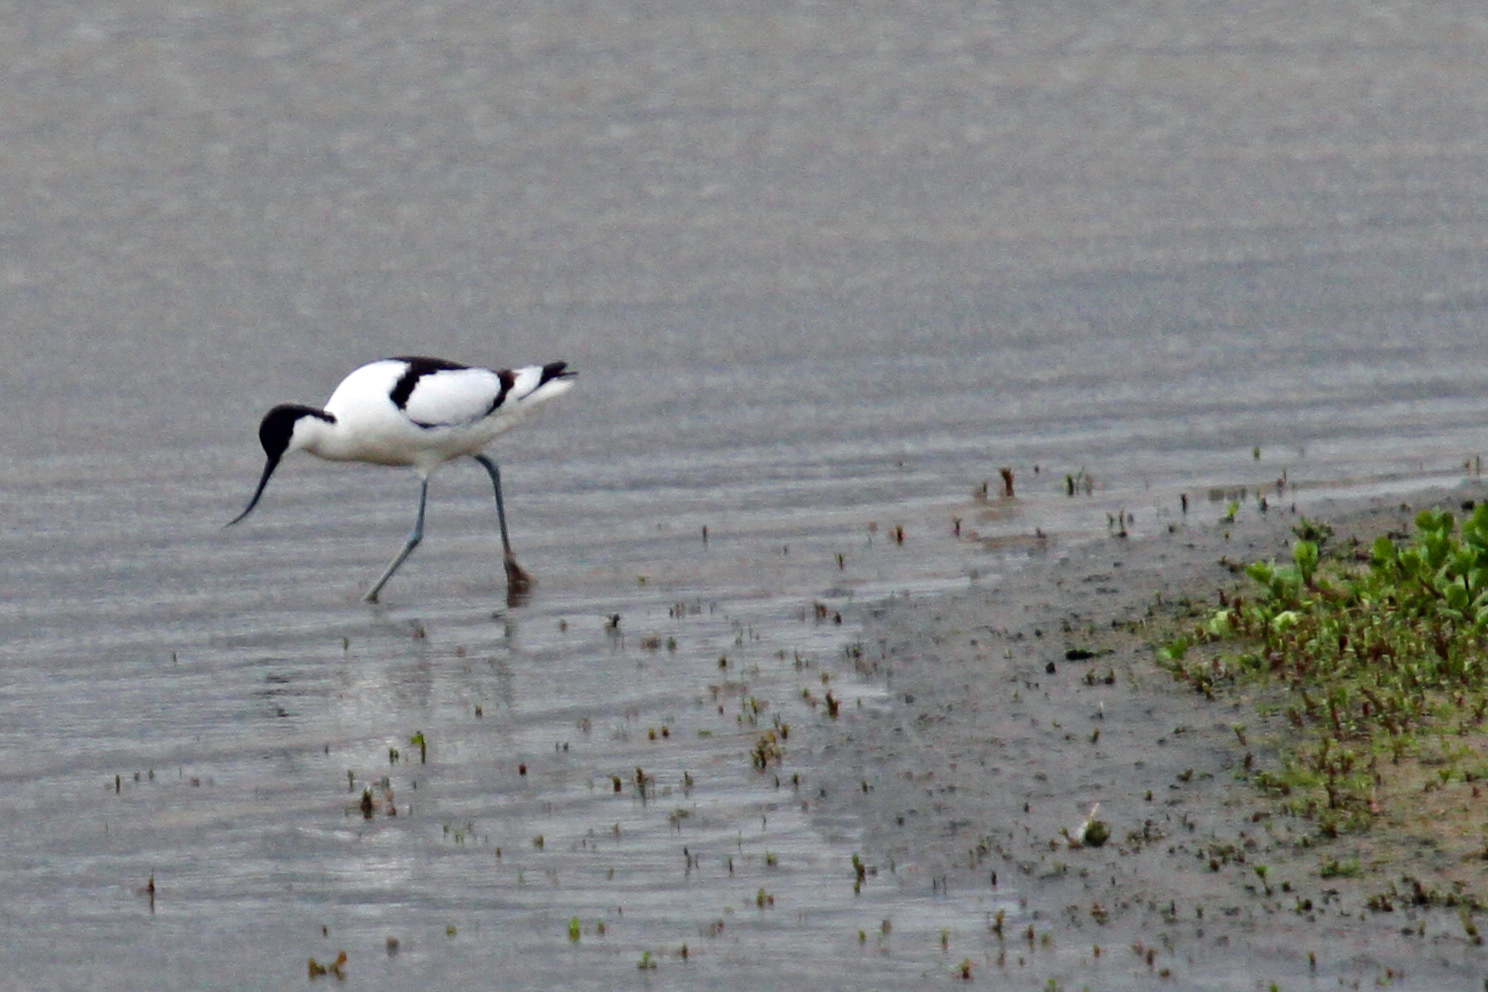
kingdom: Animalia
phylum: Chordata
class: Aves
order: Charadriiformes
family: Recurvirostridae
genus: Recurvirostra
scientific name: Recurvirostra avosetta
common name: Pied avocet
